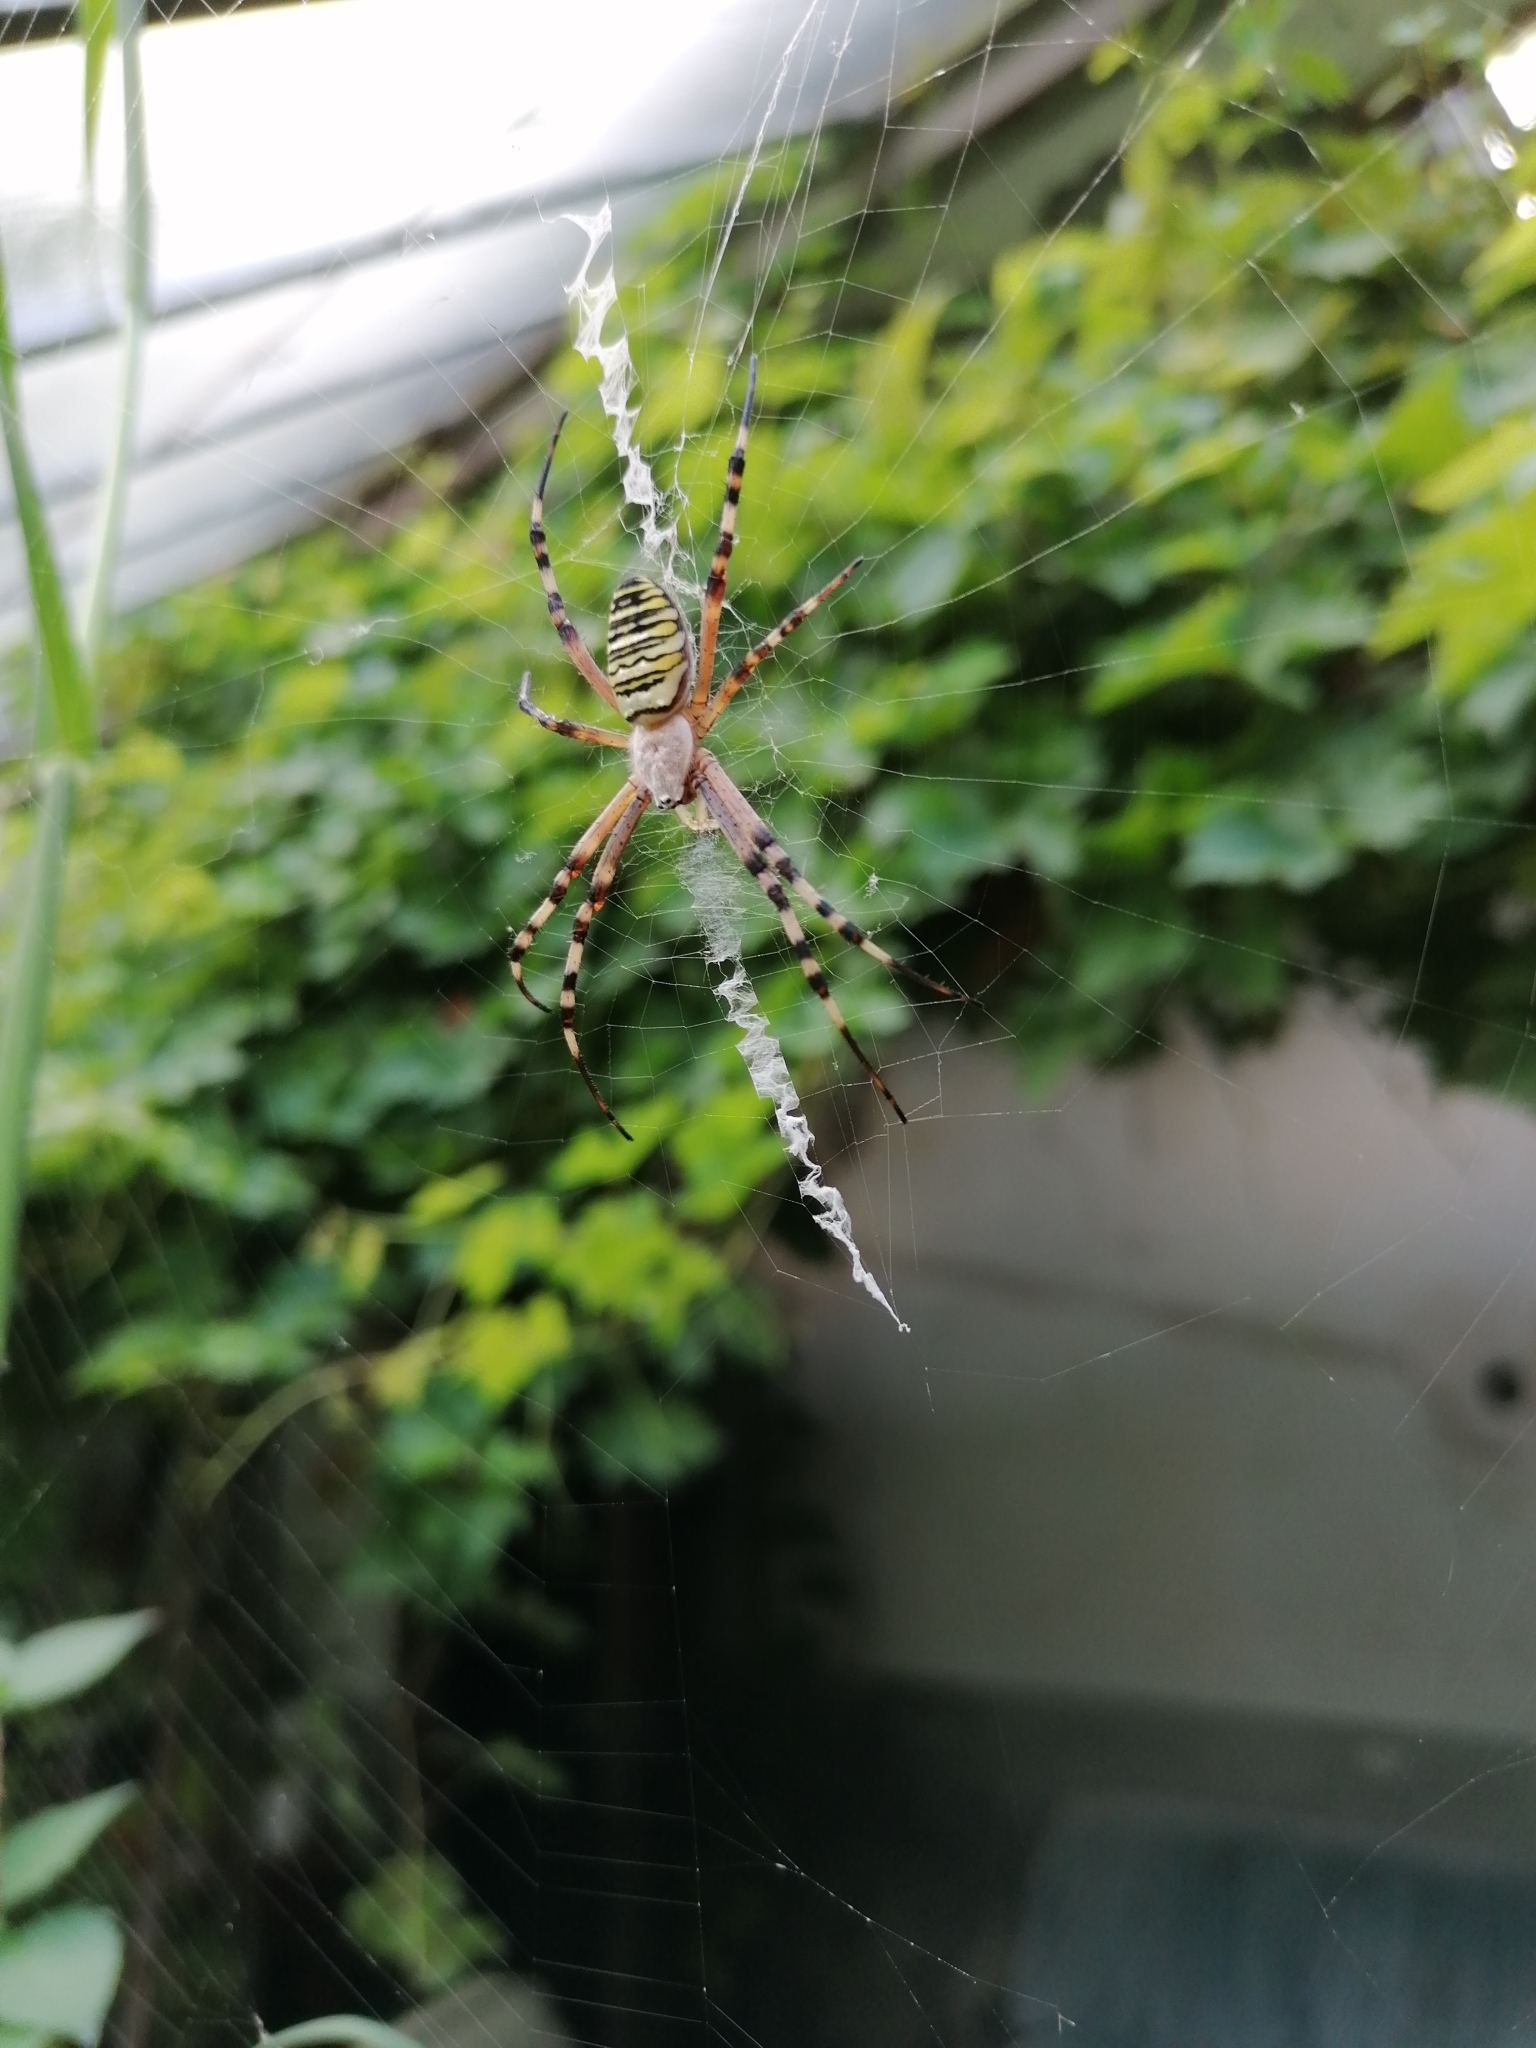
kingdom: Animalia
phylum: Arthropoda
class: Arachnida
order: Araneae
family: Araneidae
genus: Argiope
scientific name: Argiope bruennichi
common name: Wasp spider
